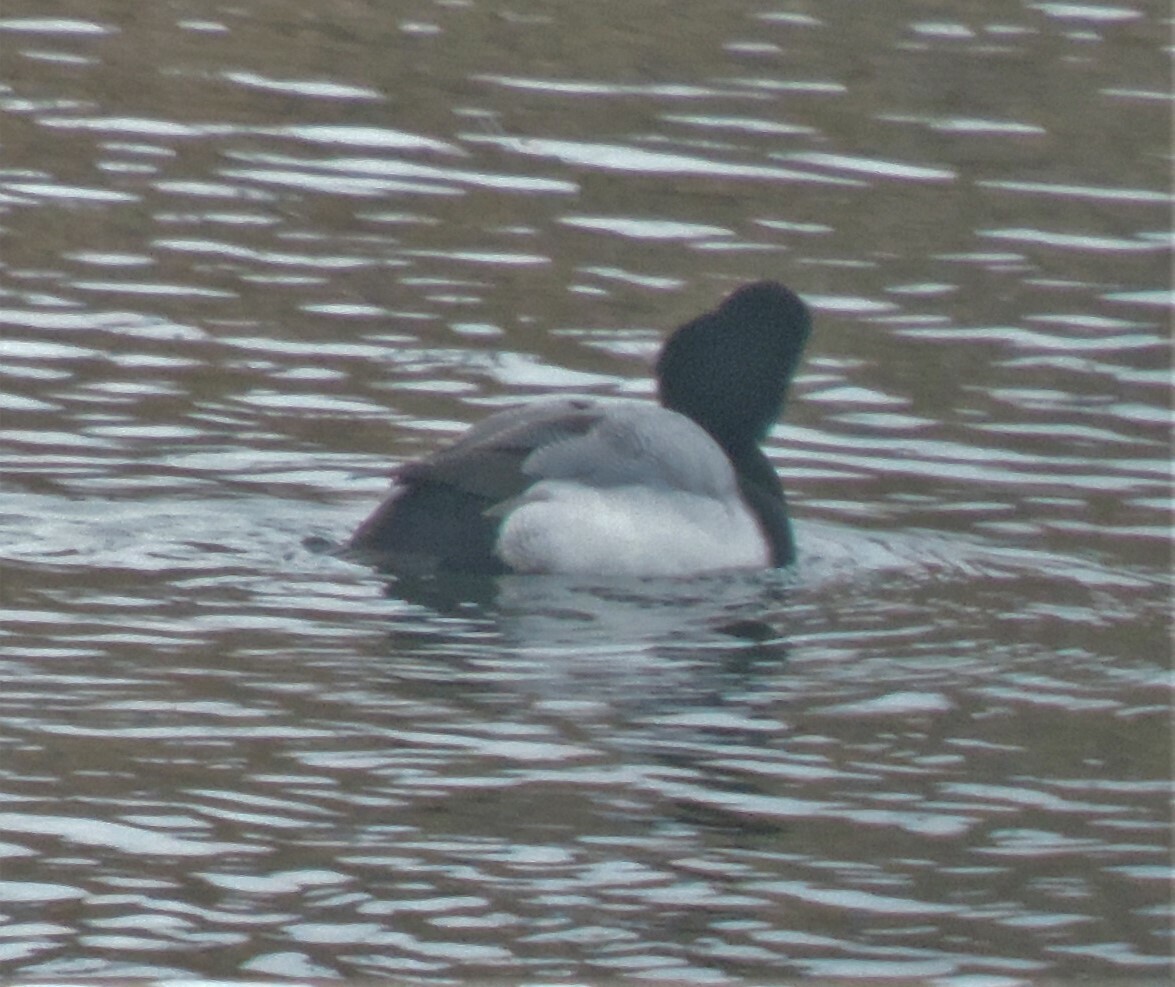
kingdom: Animalia
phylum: Chordata
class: Aves
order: Anseriformes
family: Anatidae
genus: Aythya
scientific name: Aythya marila
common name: Greater scaup
